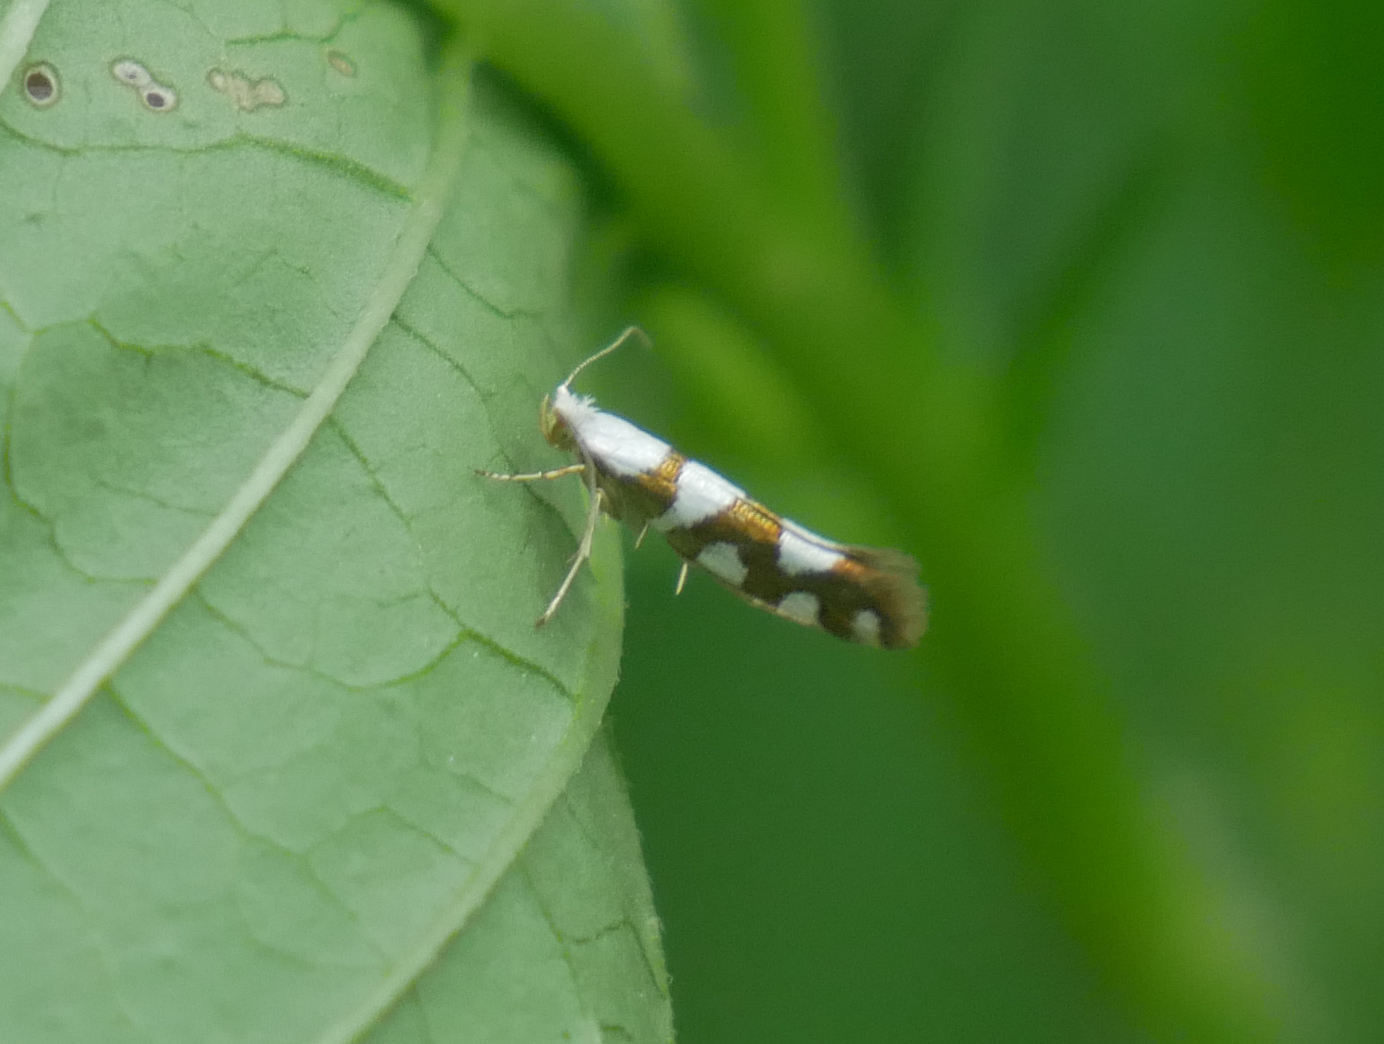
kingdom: Animalia
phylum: Arthropoda
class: Insecta
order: Lepidoptera
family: Argyresthiidae
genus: Argyresthia
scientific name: Argyresthia brockeella
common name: Gold-ribbon argent
